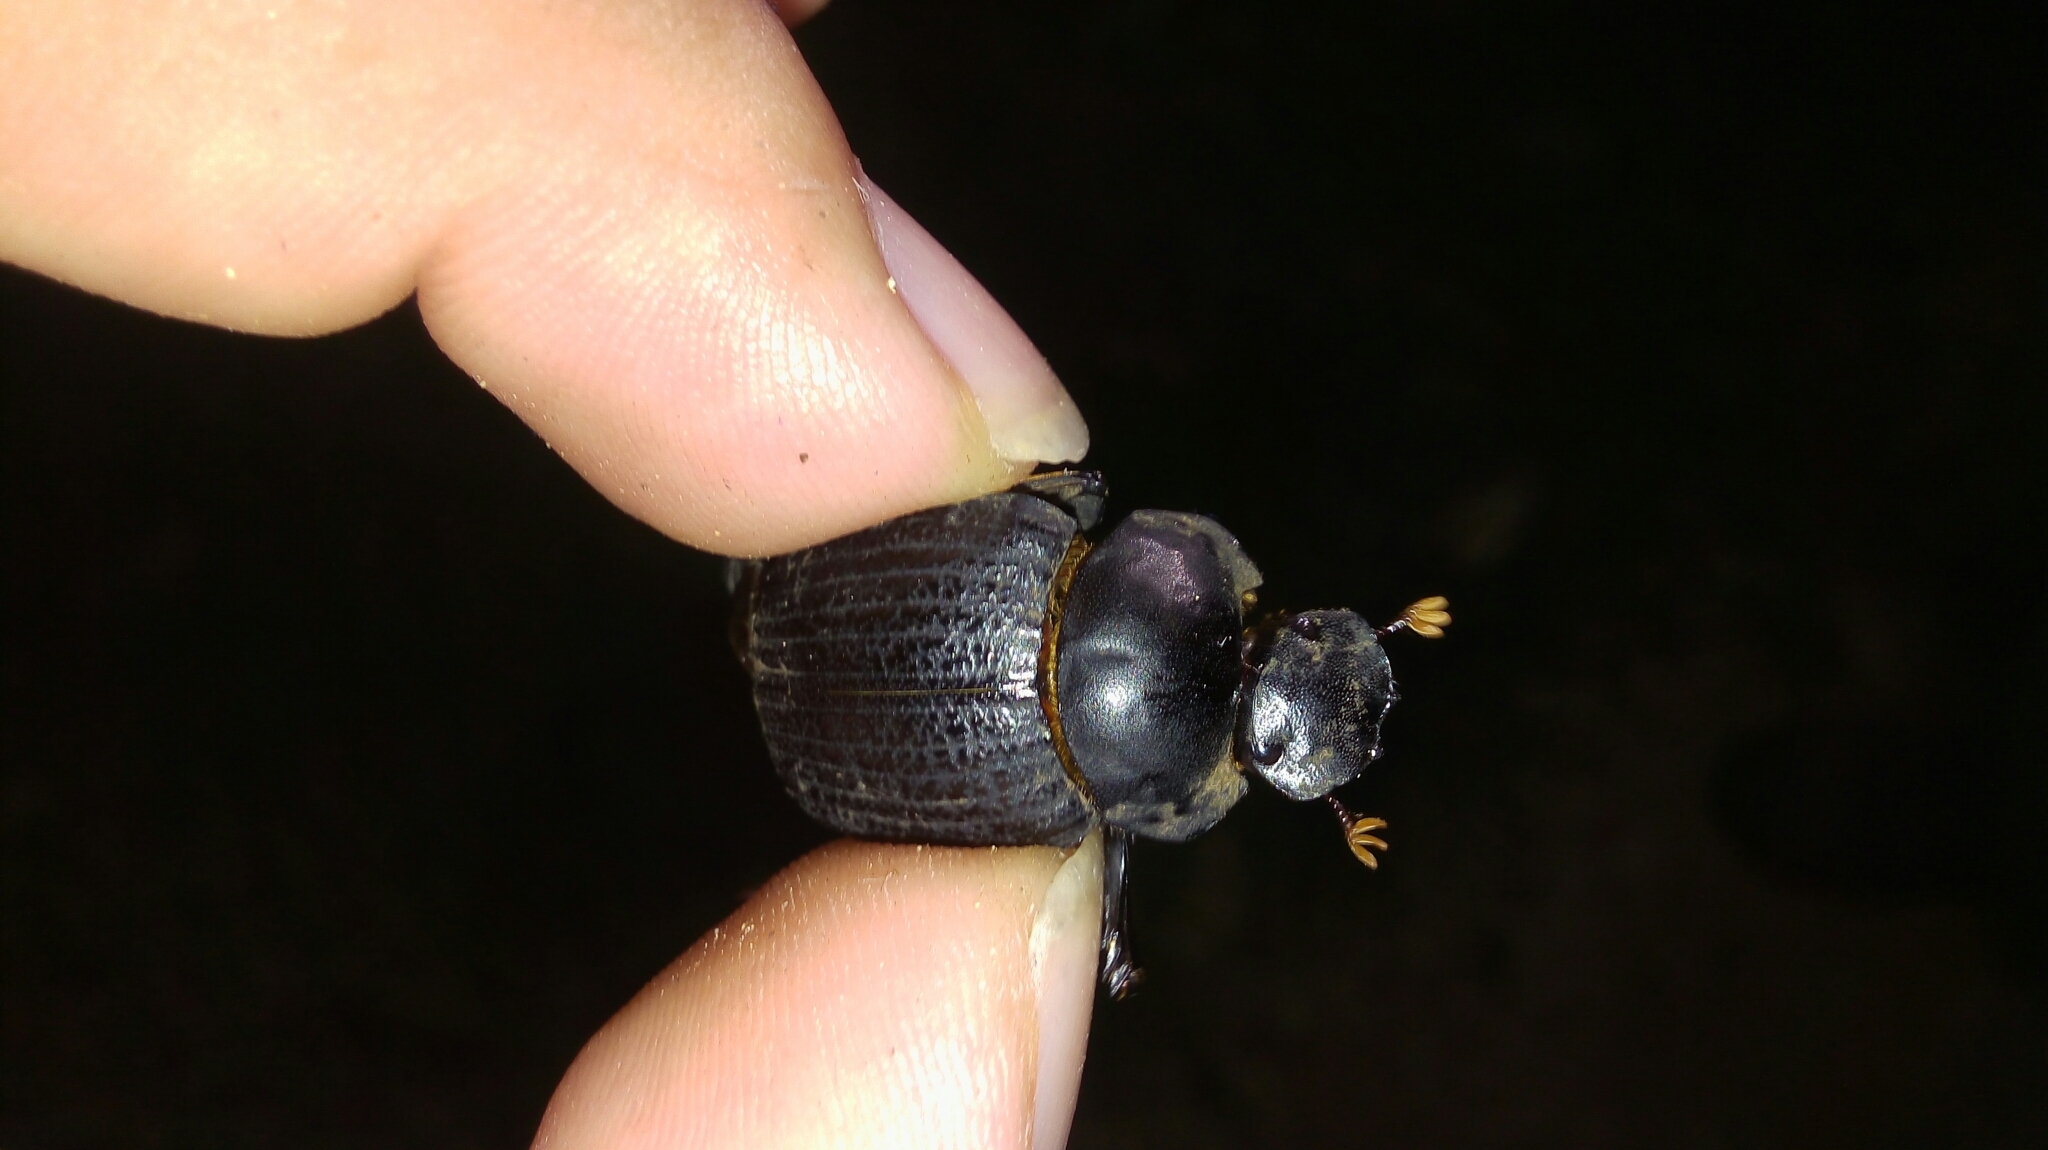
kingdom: Animalia
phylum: Arthropoda
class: Insecta
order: Coleoptera
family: Scarabaeidae
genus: Deltochilum
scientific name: Deltochilum scabriusculum
